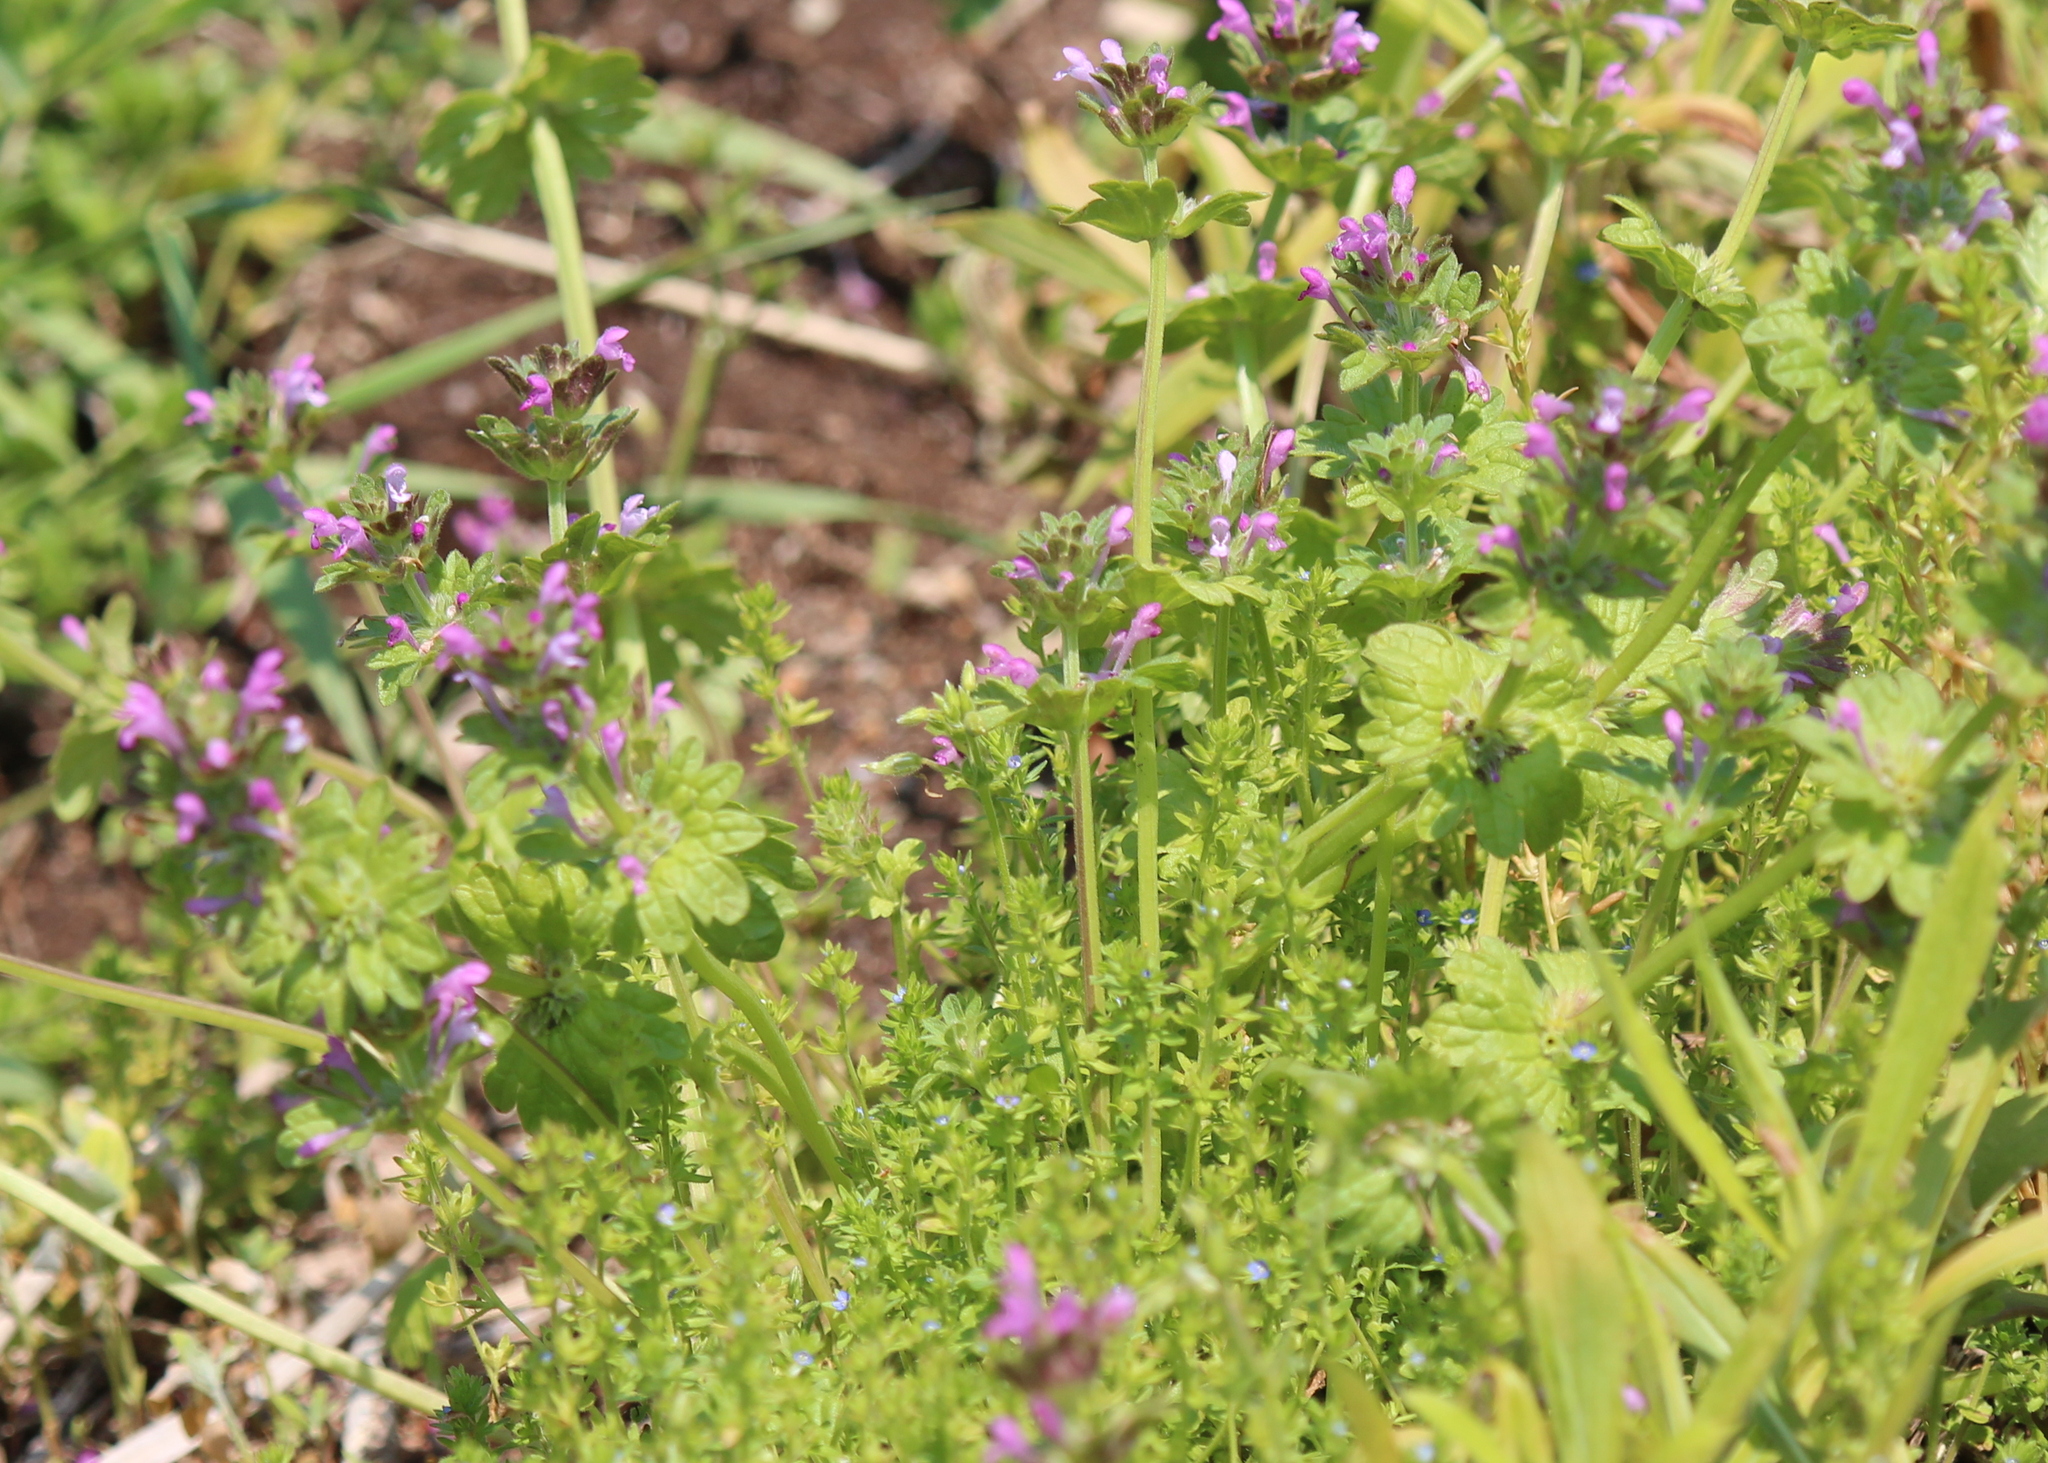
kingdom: Plantae
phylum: Tracheophyta
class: Magnoliopsida
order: Lamiales
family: Lamiaceae
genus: Lamium
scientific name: Lamium amplexicaule
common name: Henbit dead-nettle
